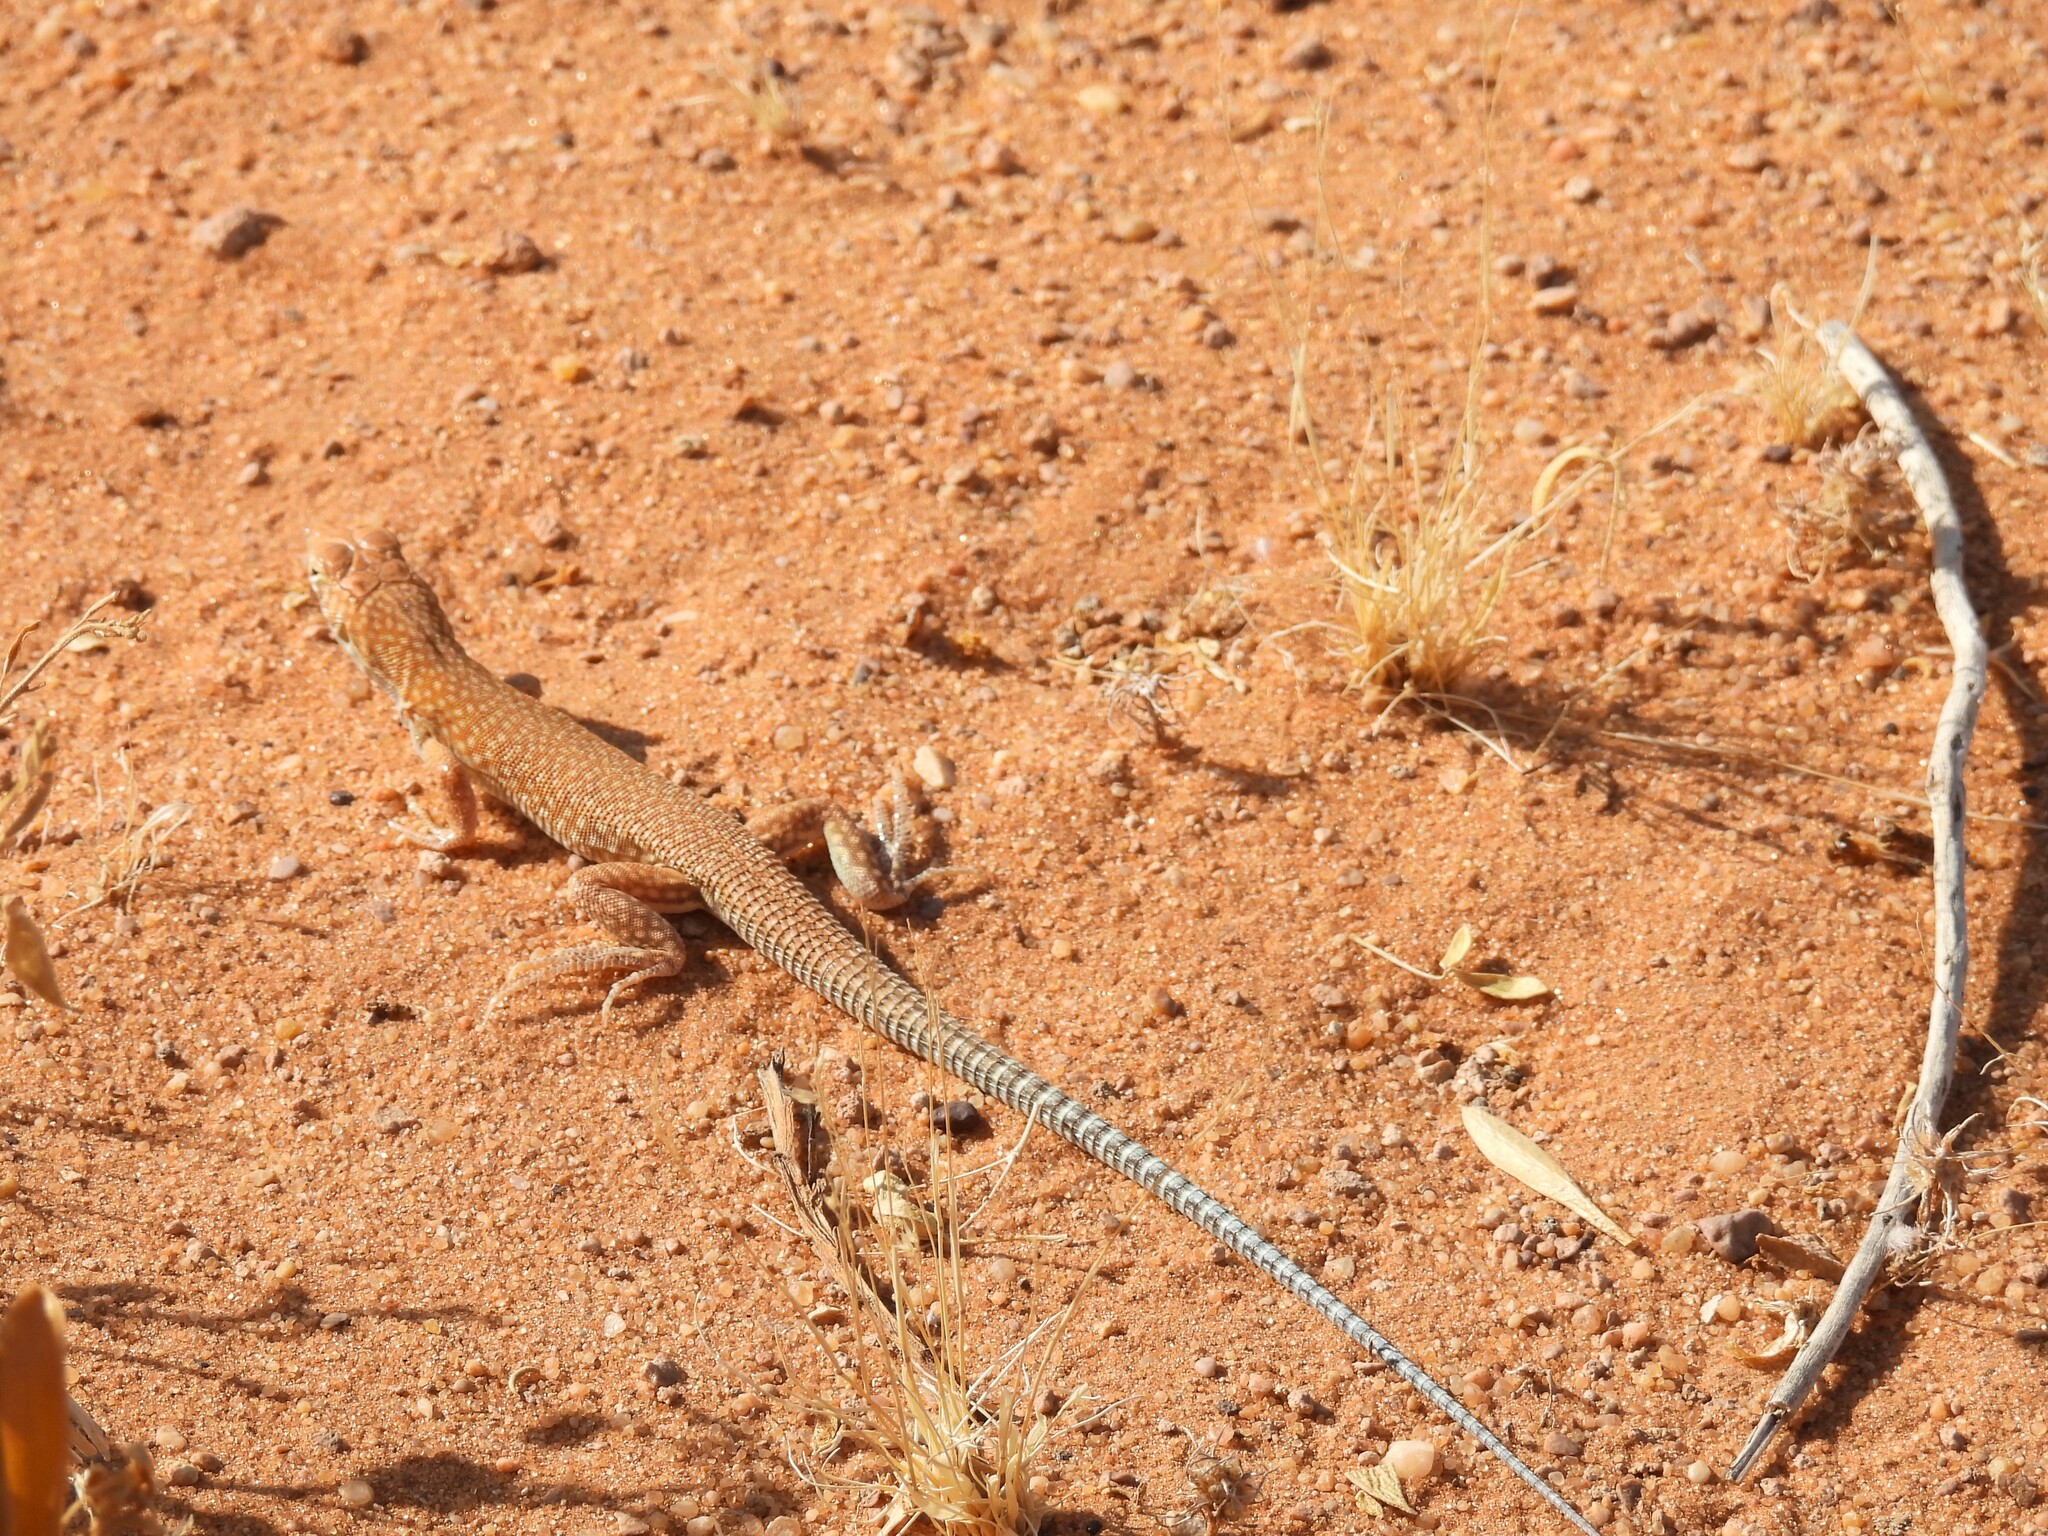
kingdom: Animalia
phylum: Chordata
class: Squamata
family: Lacertidae
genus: Acanthodactylus
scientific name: Acanthodactylus schmidti
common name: Schmidt's fringe-toed lizard
